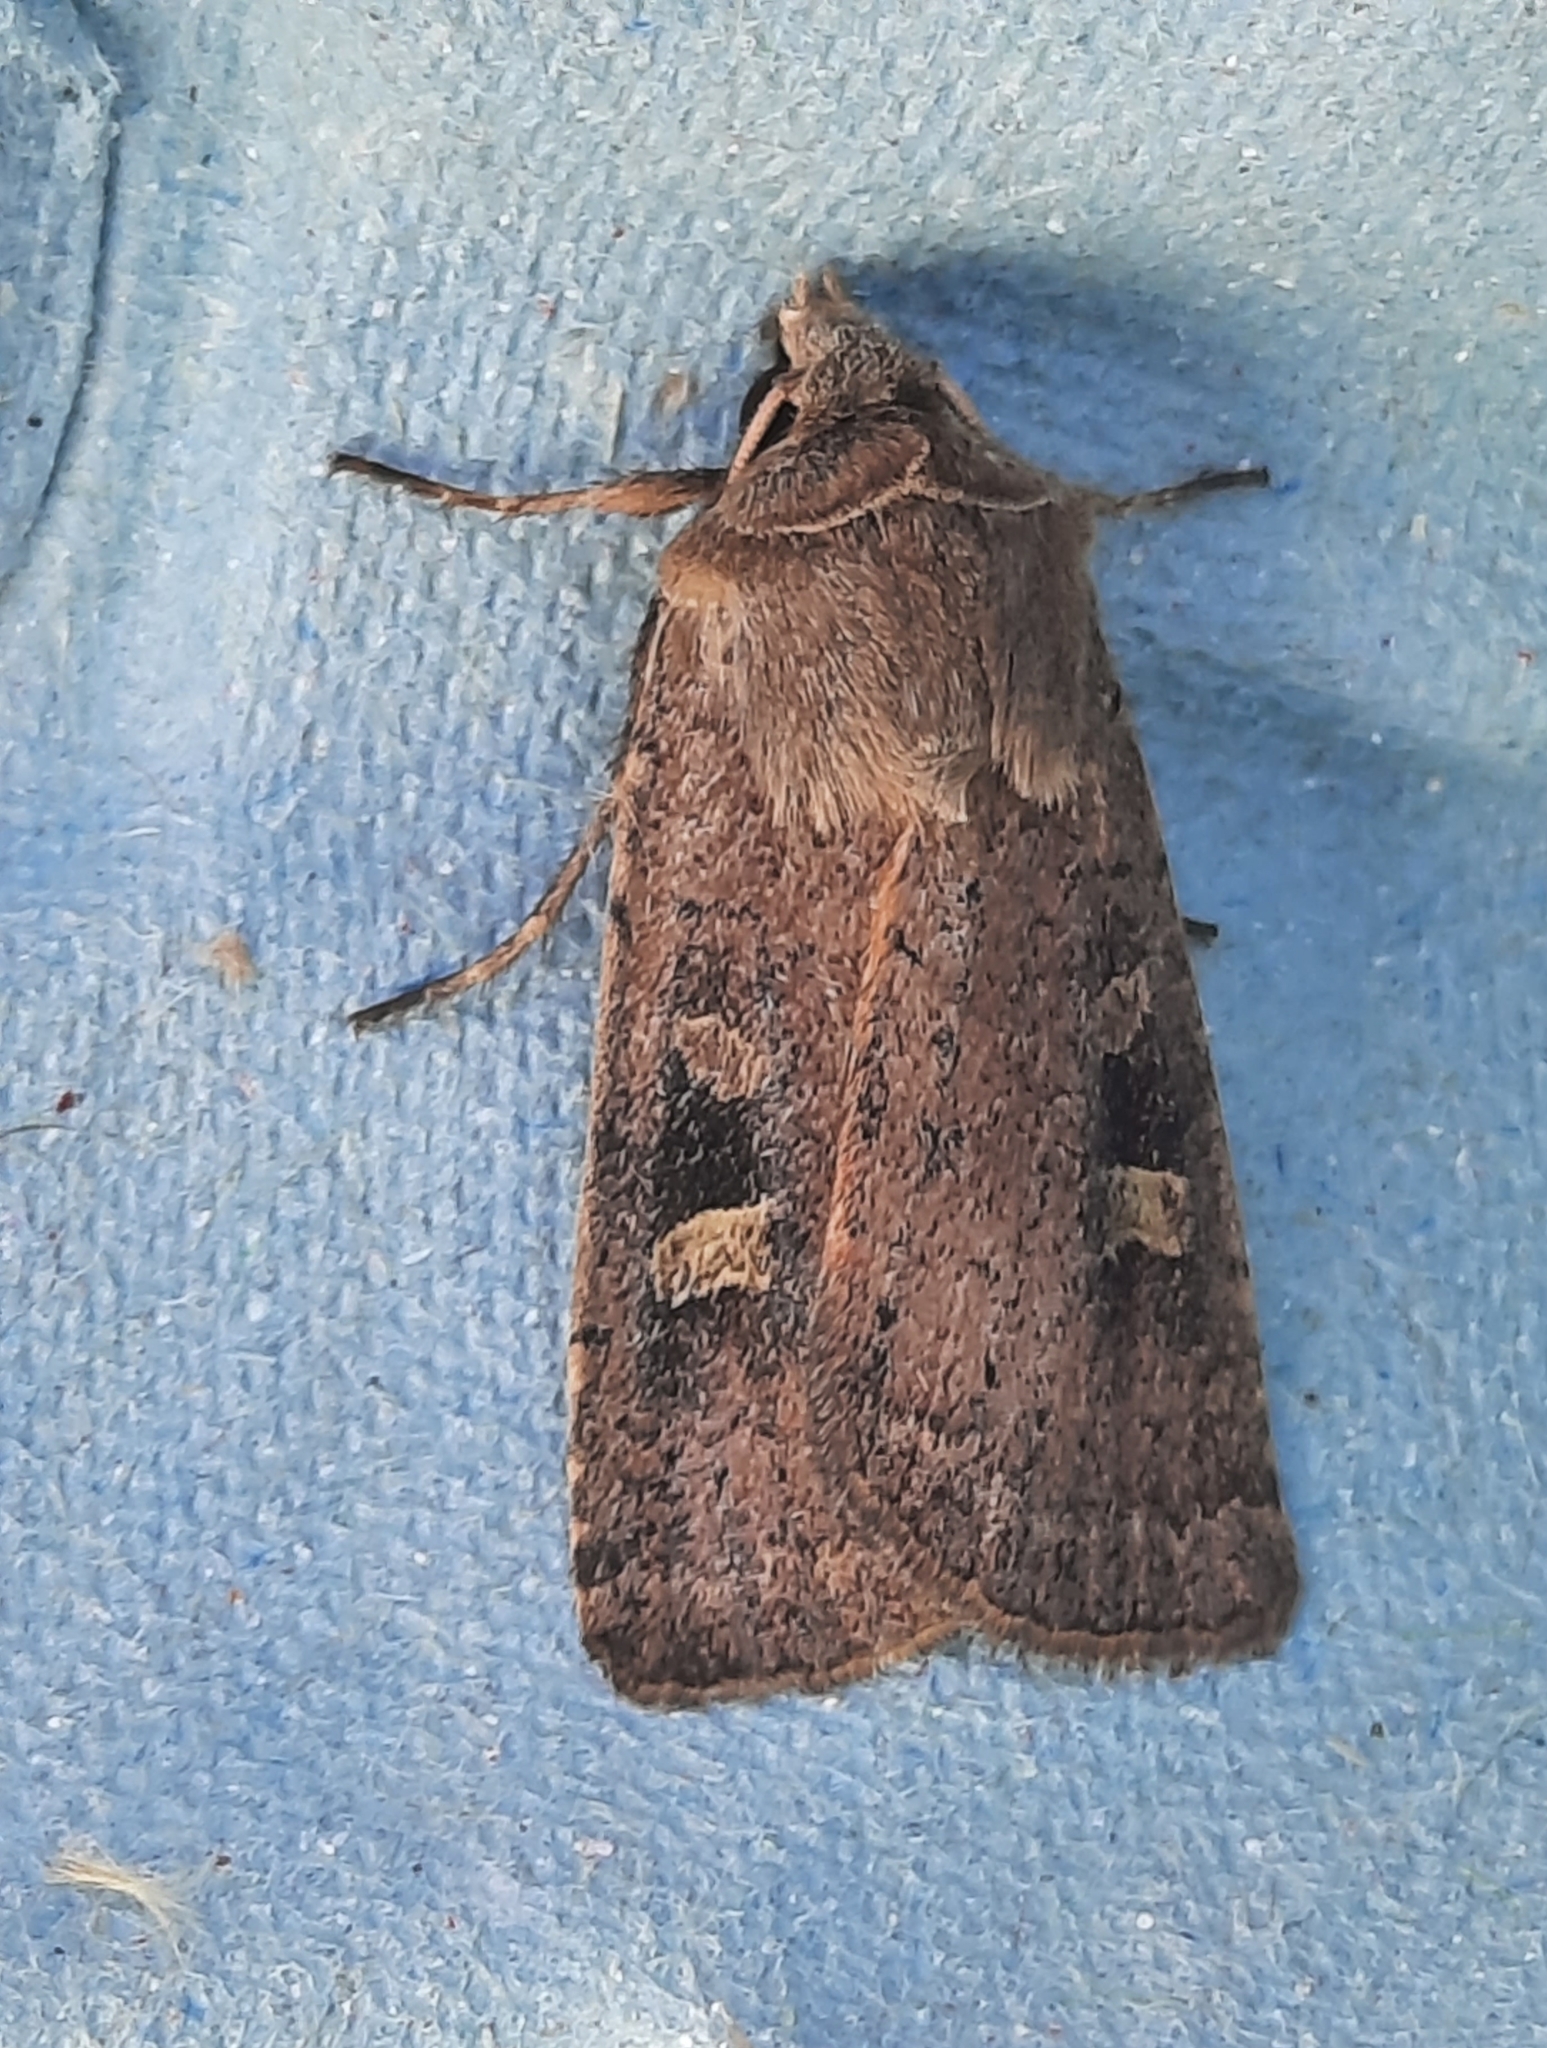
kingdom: Animalia
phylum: Arthropoda
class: Insecta
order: Lepidoptera
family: Noctuidae
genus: Xestia
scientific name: Xestia xanthographa
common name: Square-spot rustic
